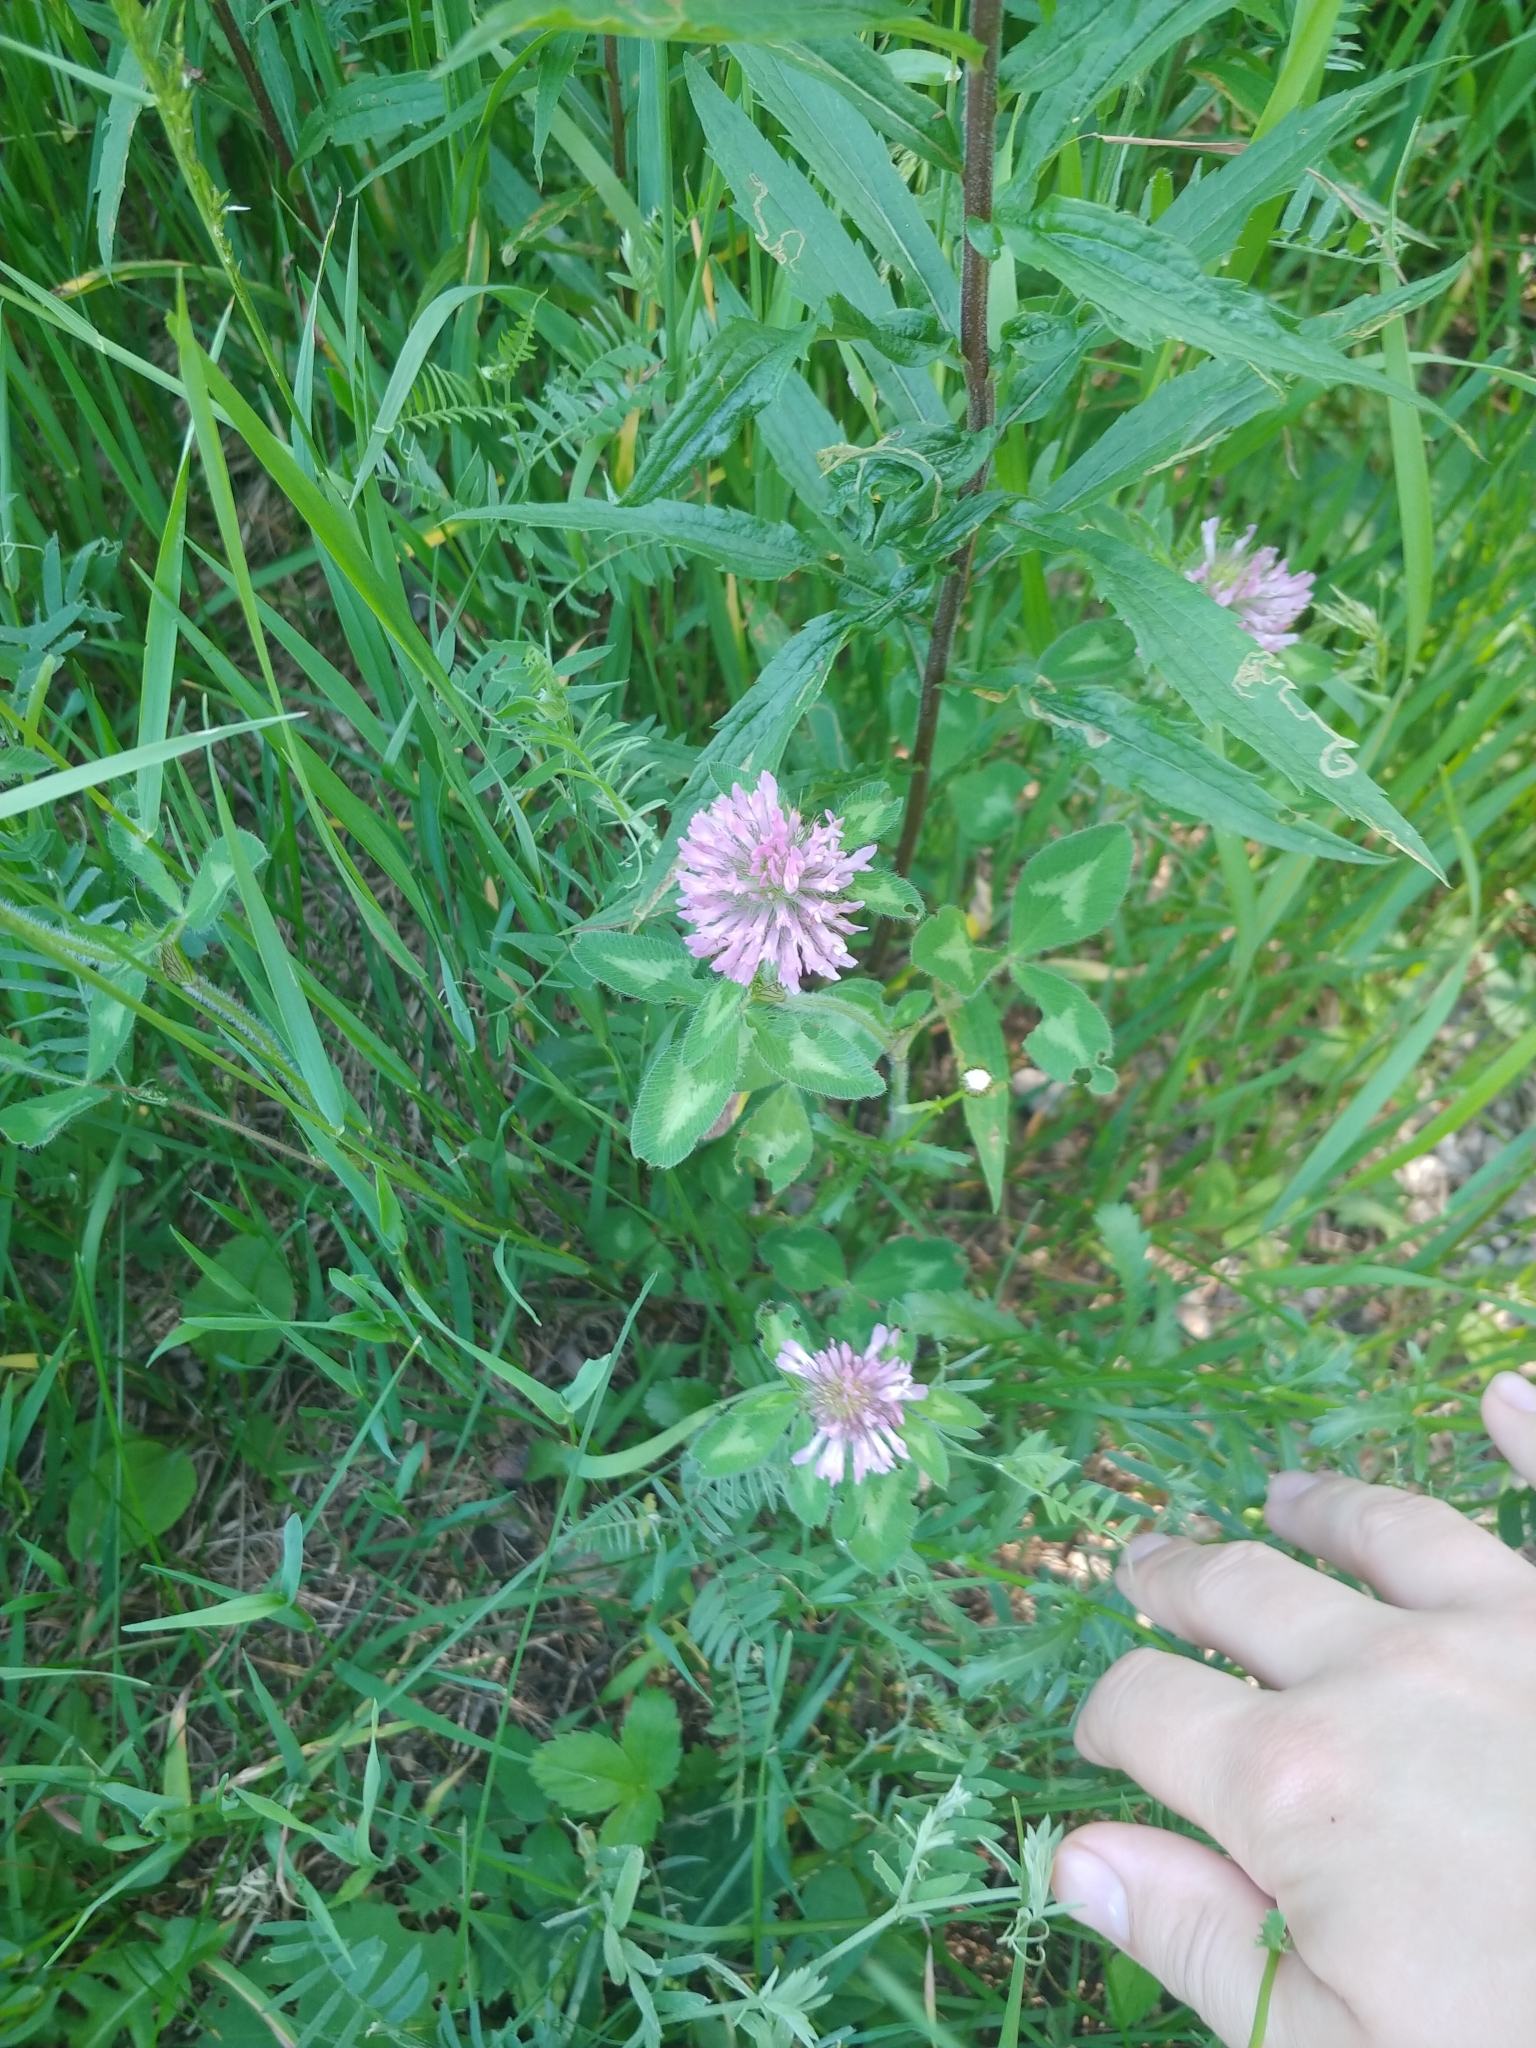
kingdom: Plantae
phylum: Tracheophyta
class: Magnoliopsida
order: Fabales
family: Fabaceae
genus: Trifolium
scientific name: Trifolium pratense
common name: Red clover
